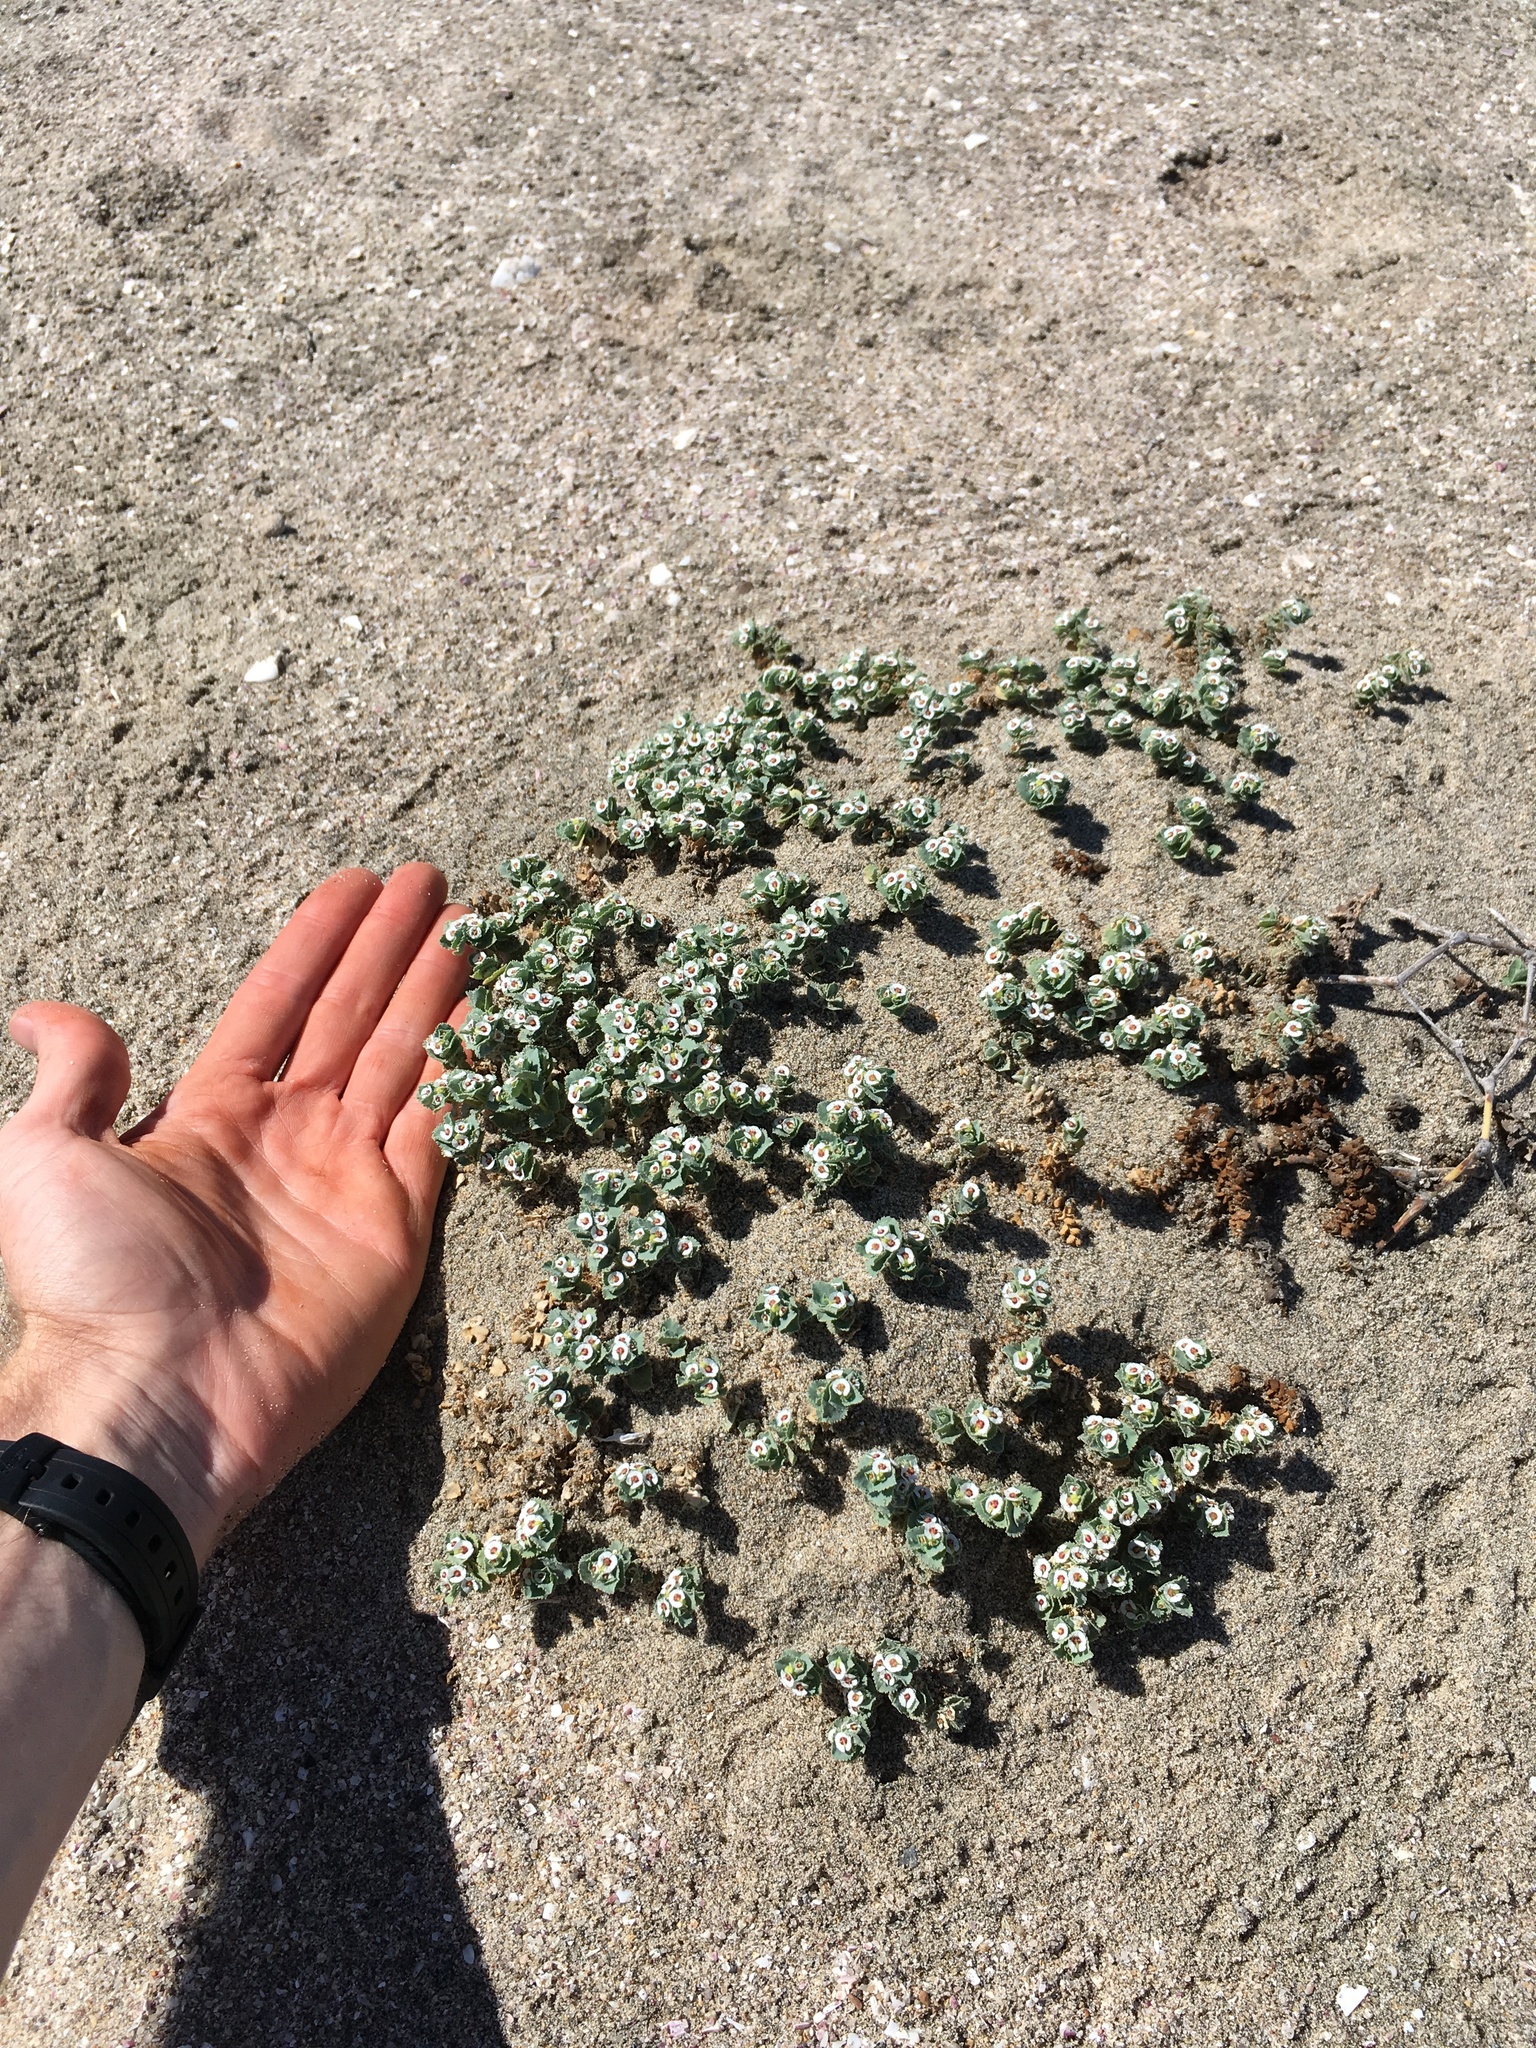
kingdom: Plantae
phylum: Tracheophyta
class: Magnoliopsida
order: Malpighiales
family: Euphorbiaceae
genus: Euphorbia
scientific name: Euphorbia leucophylla
